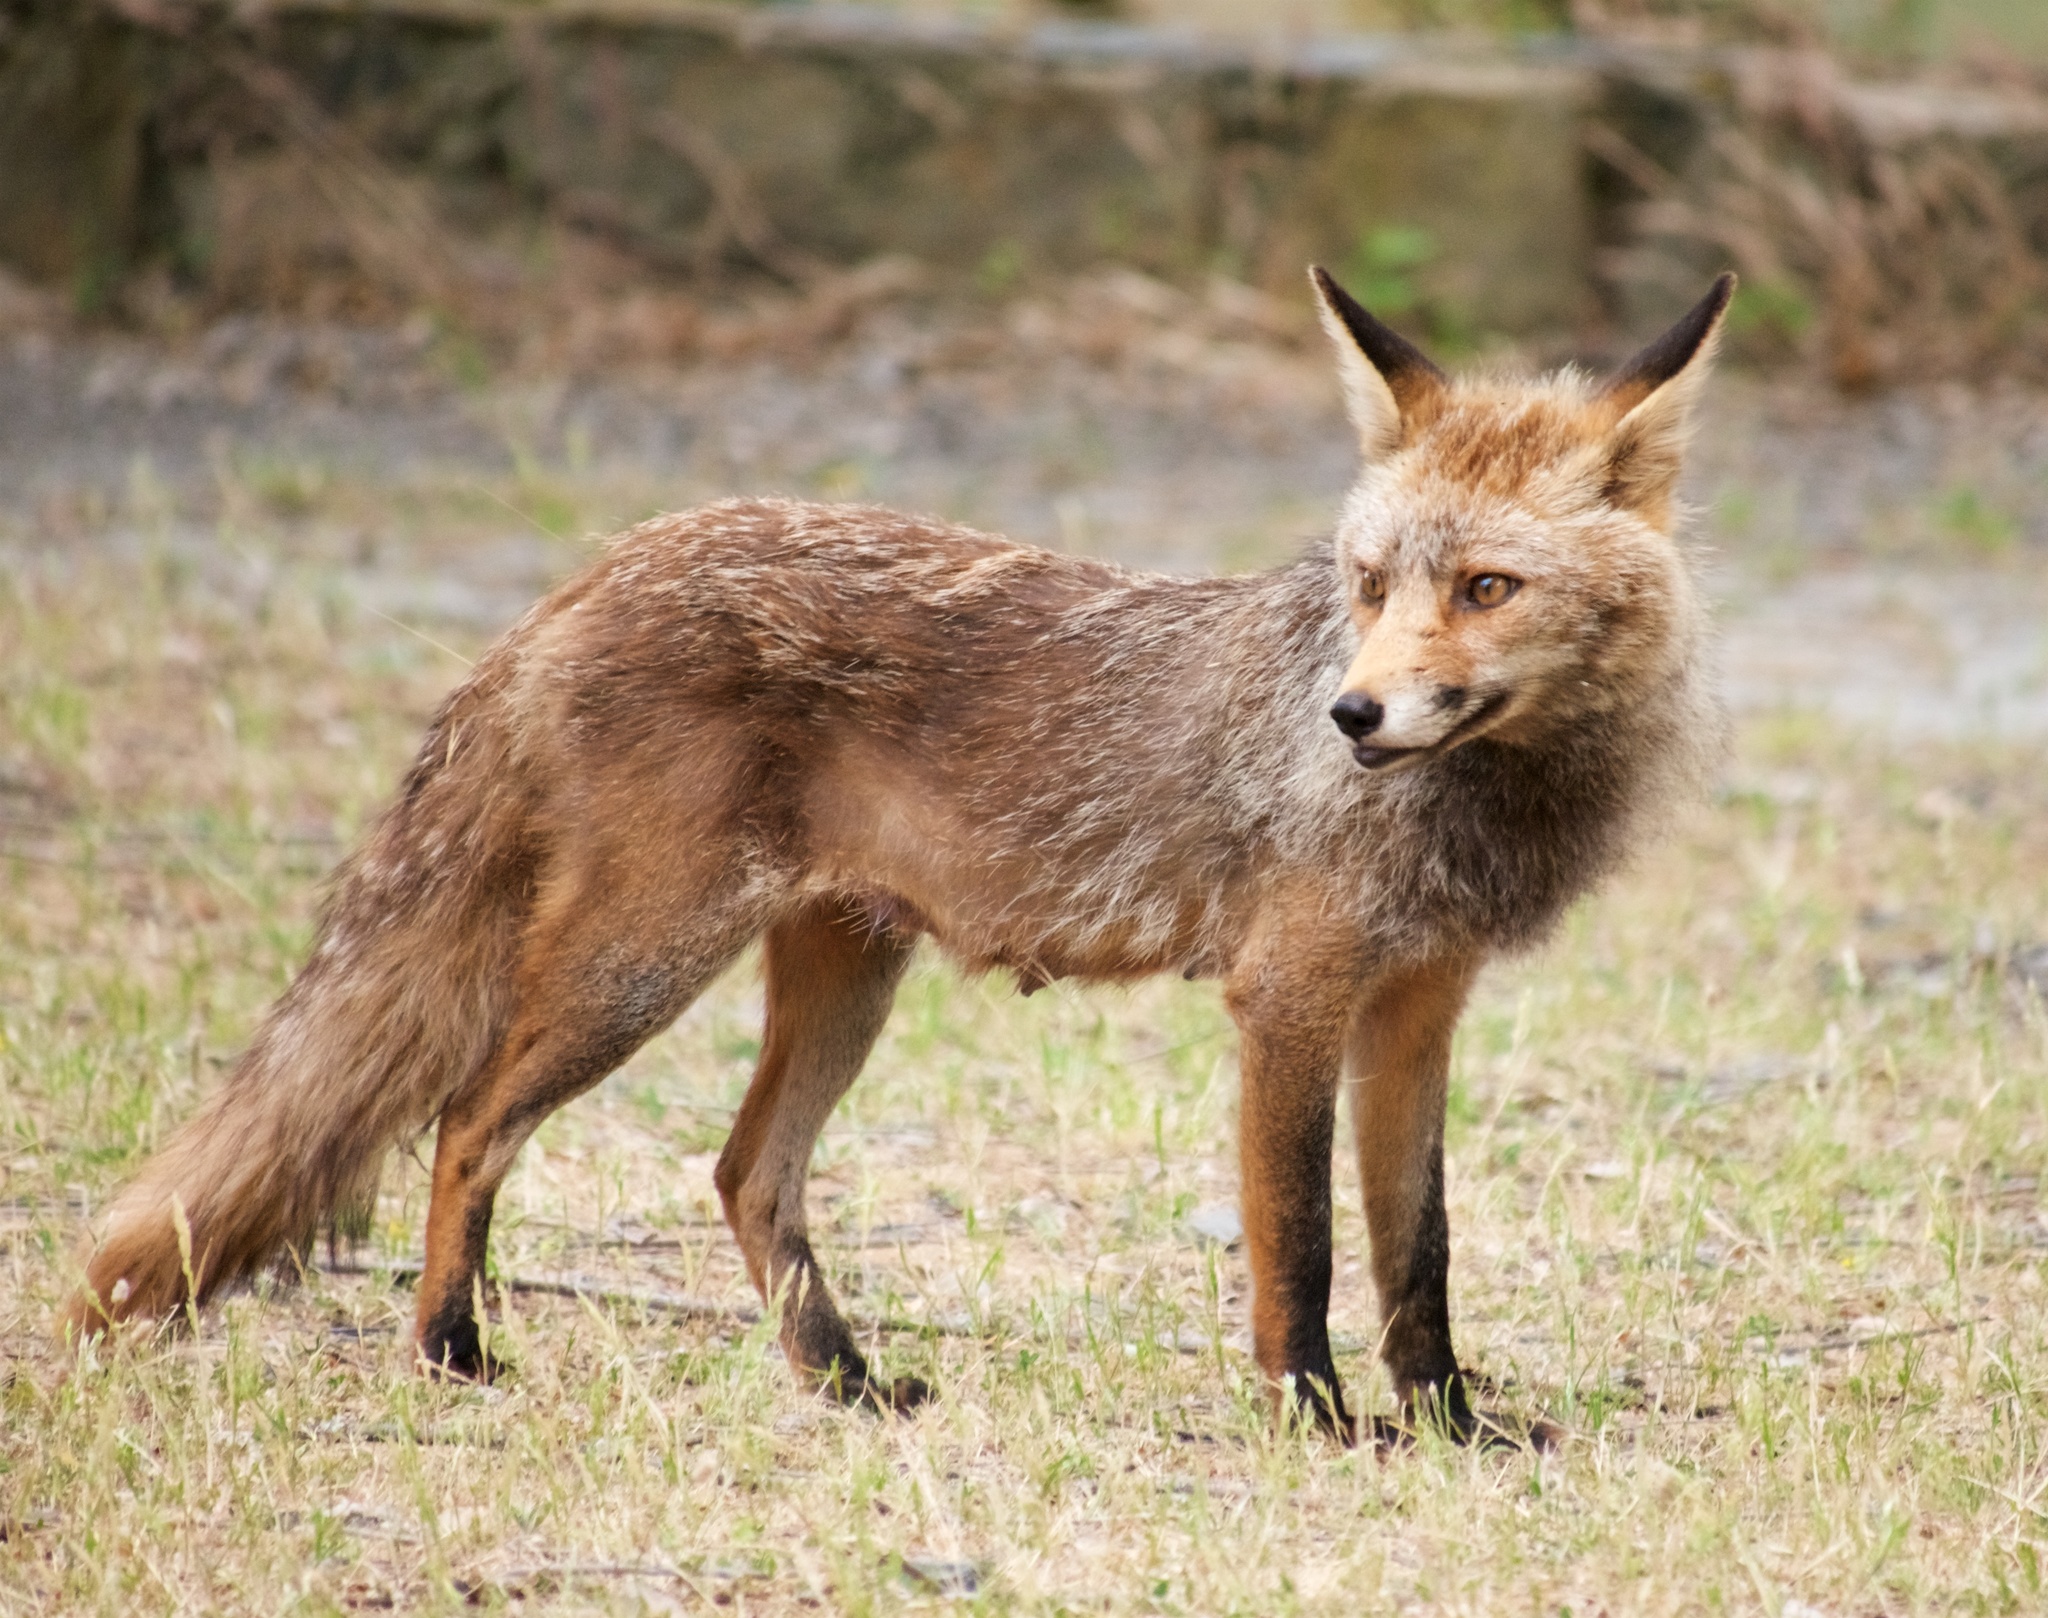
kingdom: Animalia
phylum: Chordata
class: Mammalia
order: Carnivora
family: Canidae
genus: Vulpes
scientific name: Vulpes vulpes
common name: Red fox
